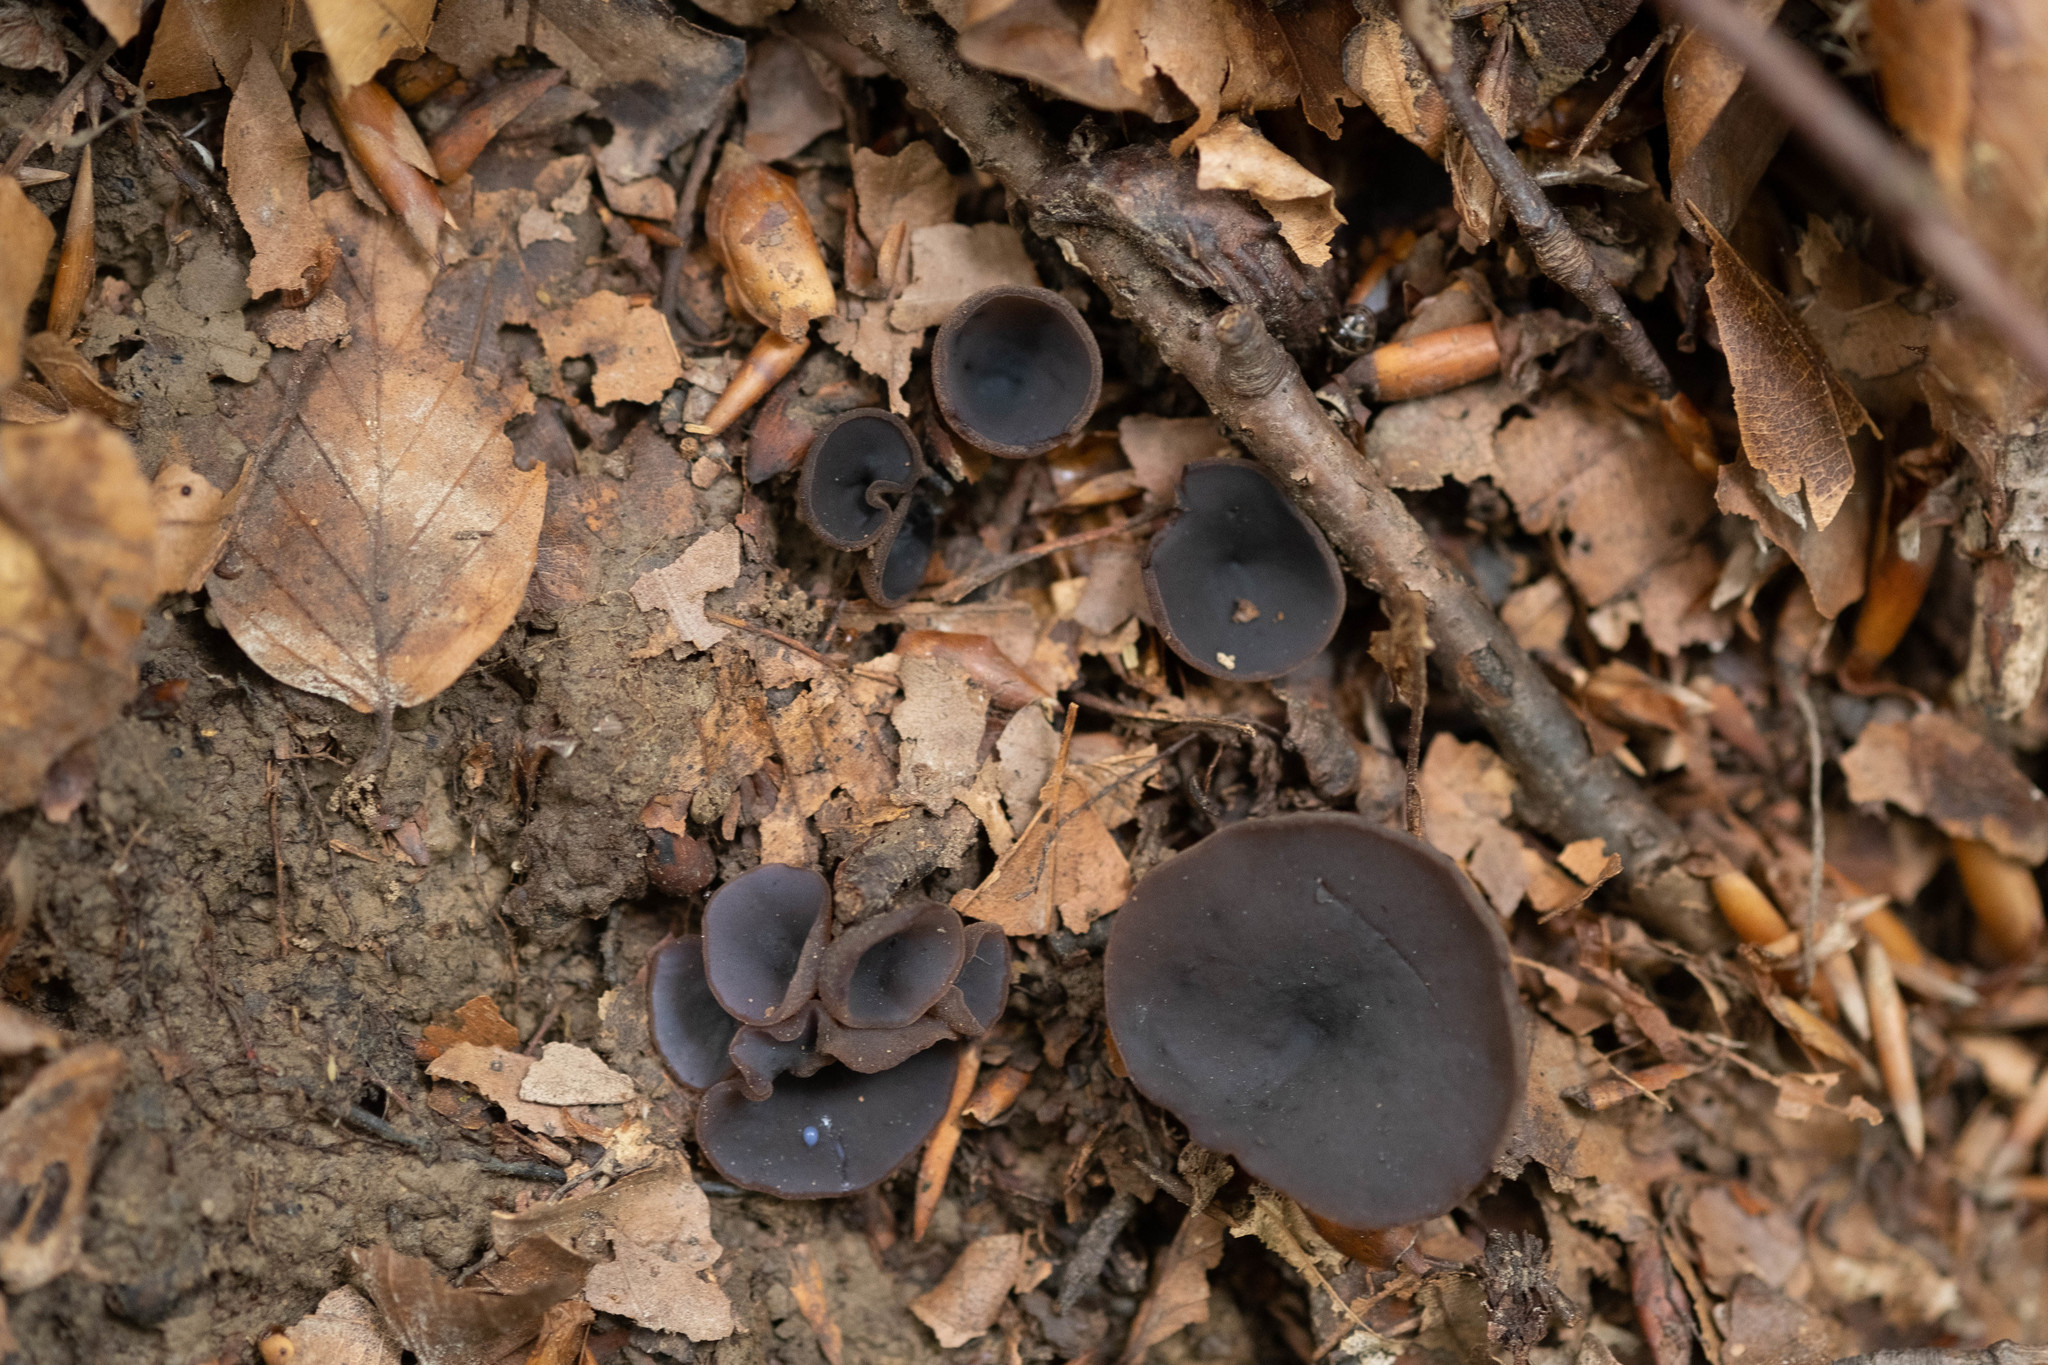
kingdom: Fungi
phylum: Ascomycota
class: Pezizomycetes
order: Pezizales
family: Pezizaceae
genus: Peziza
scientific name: Peziza saniosa
